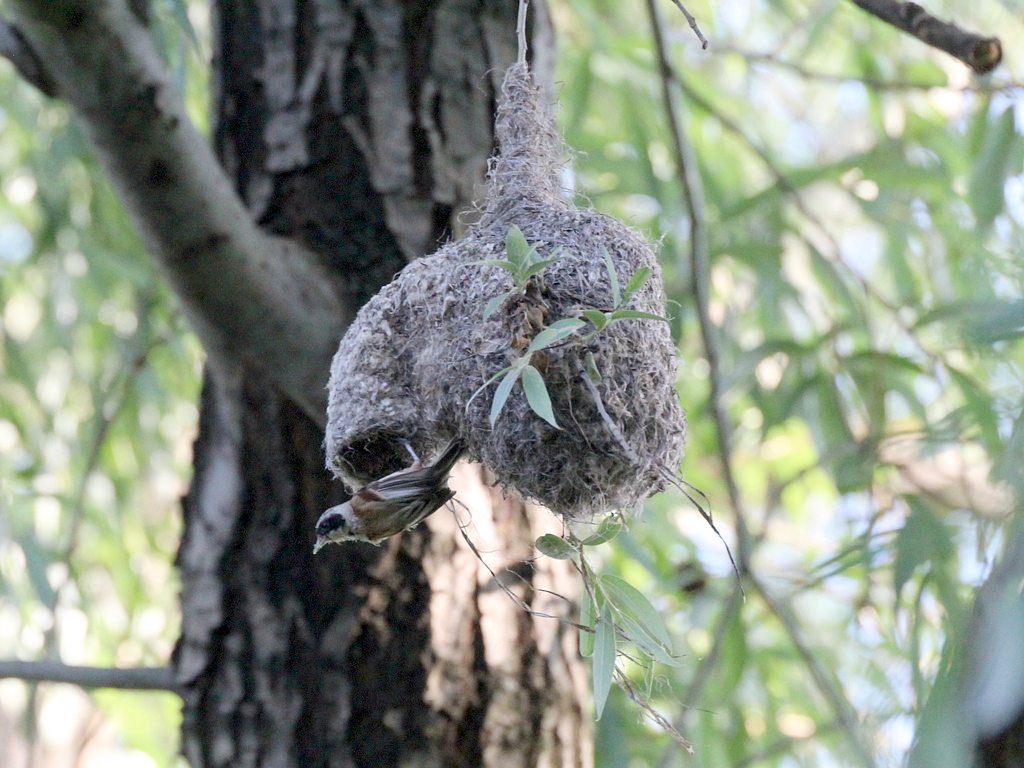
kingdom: Animalia
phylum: Chordata
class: Aves
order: Passeriformes
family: Remizidae
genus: Remiz
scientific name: Remiz pendulinus
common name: Eurasian penduline tit
